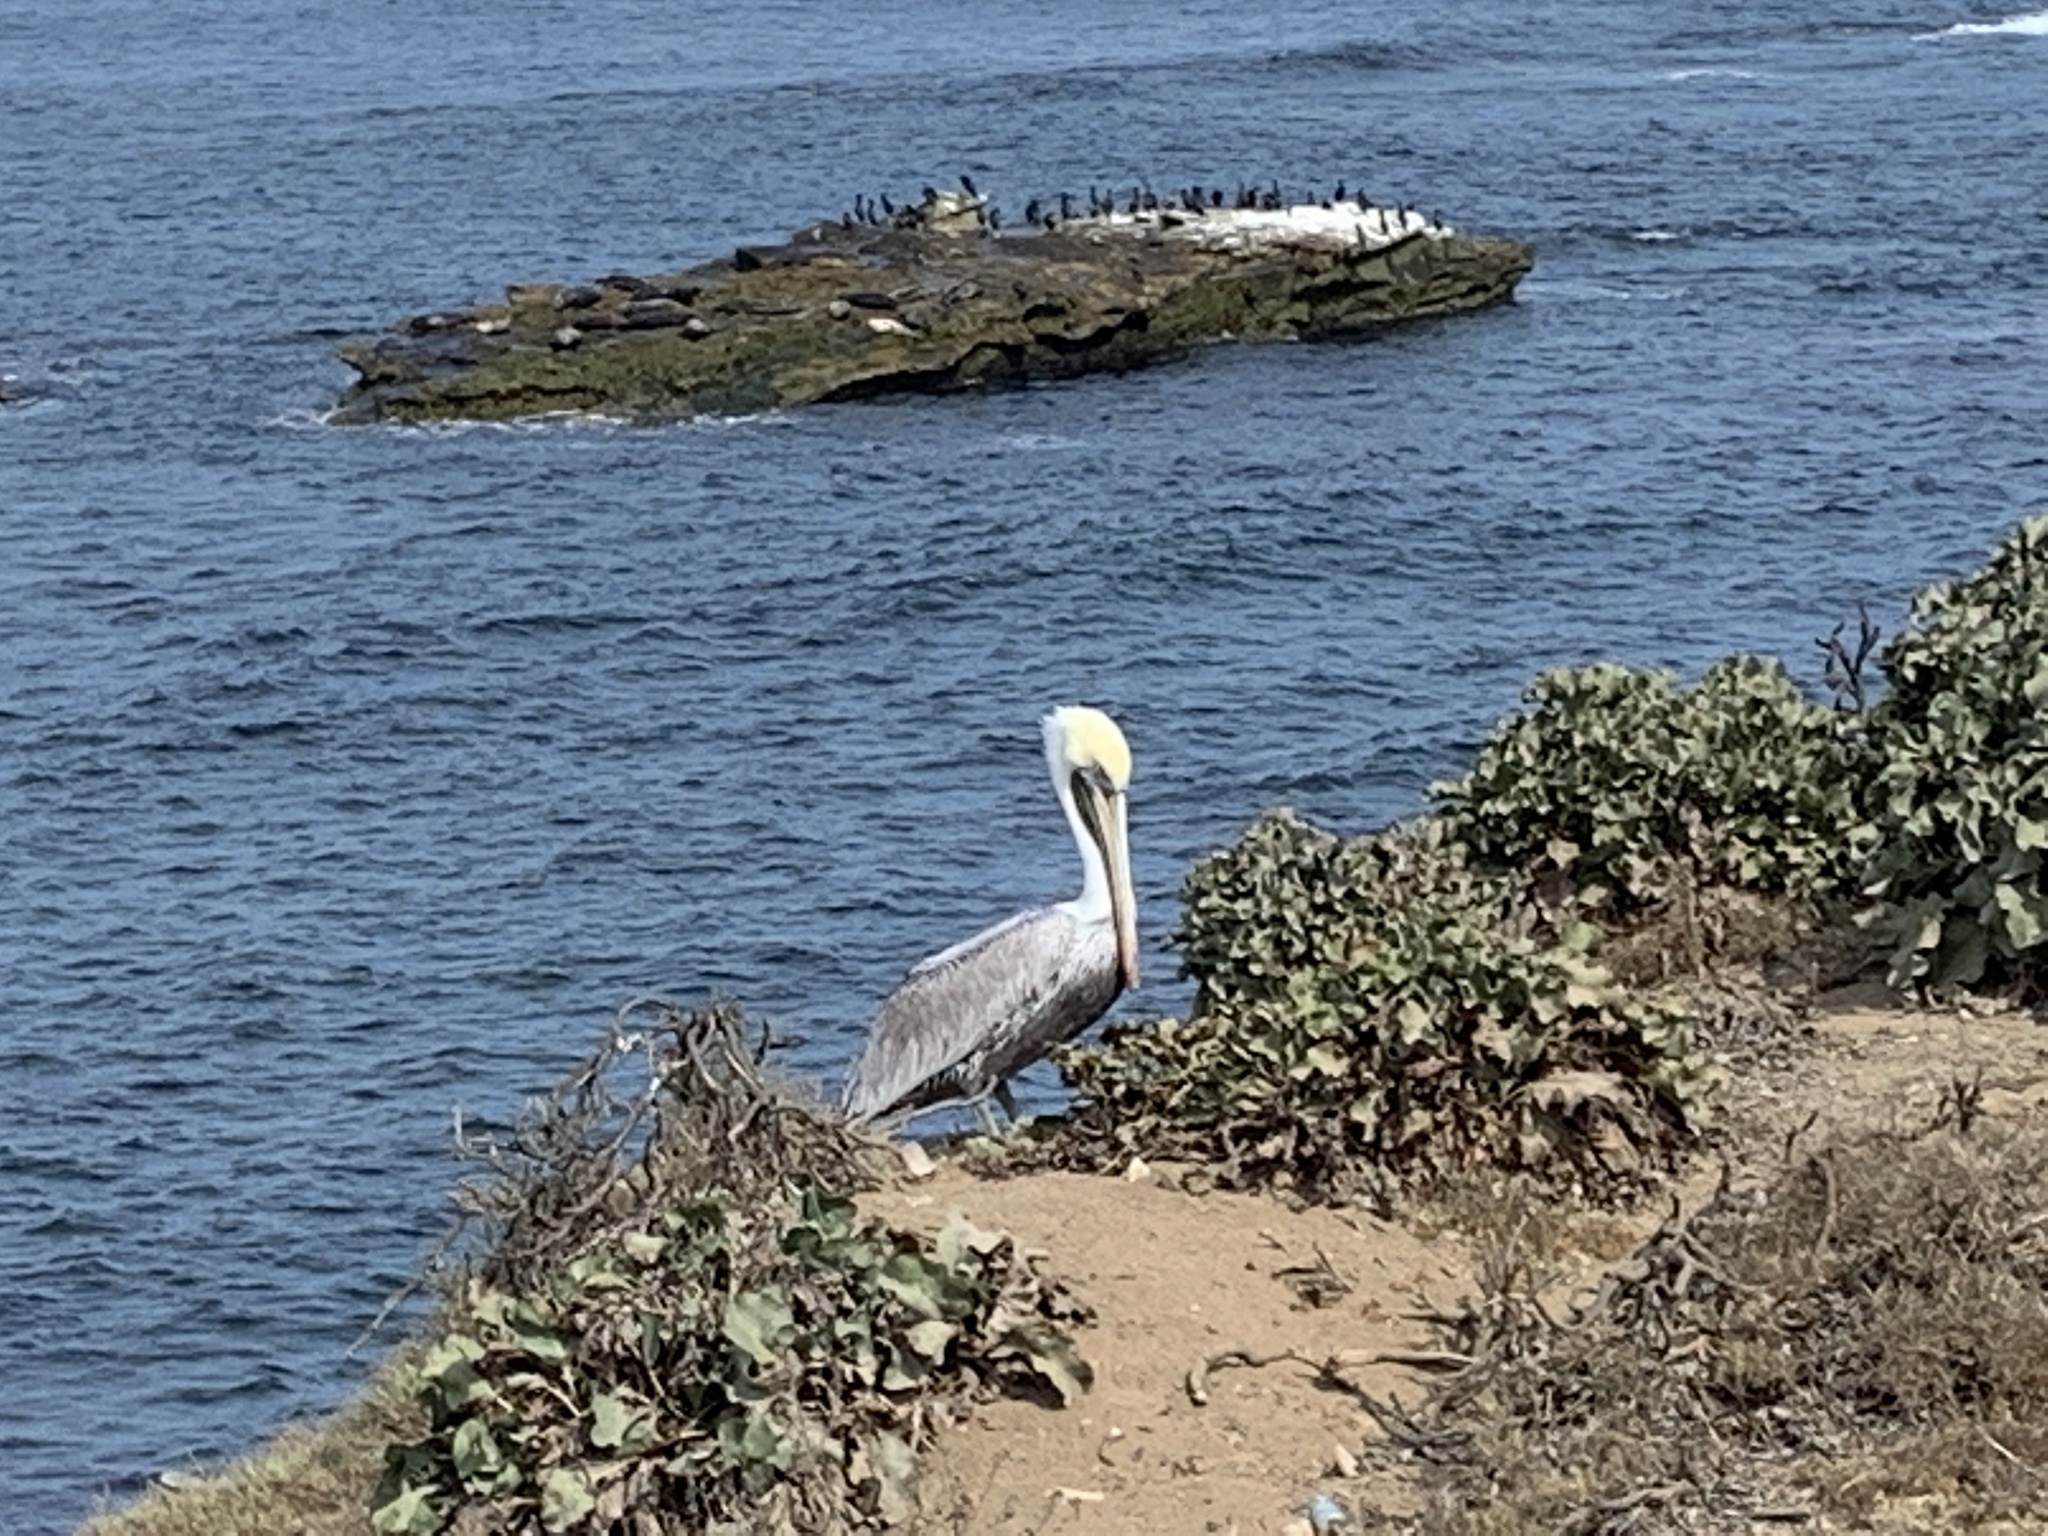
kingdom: Animalia
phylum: Chordata
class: Aves
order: Pelecaniformes
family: Pelecanidae
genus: Pelecanus
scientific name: Pelecanus occidentalis
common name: Brown pelican
